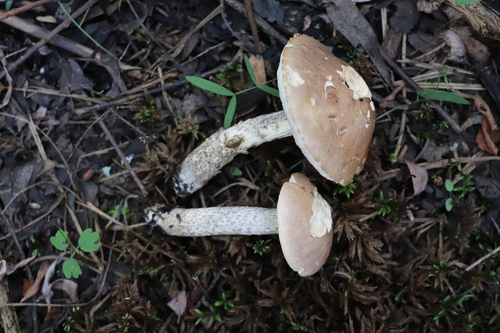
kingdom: Fungi
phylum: Basidiomycota
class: Agaricomycetes
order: Boletales
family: Boletaceae
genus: Leccinum
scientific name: Leccinum scabrum
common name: Blushing bolete
